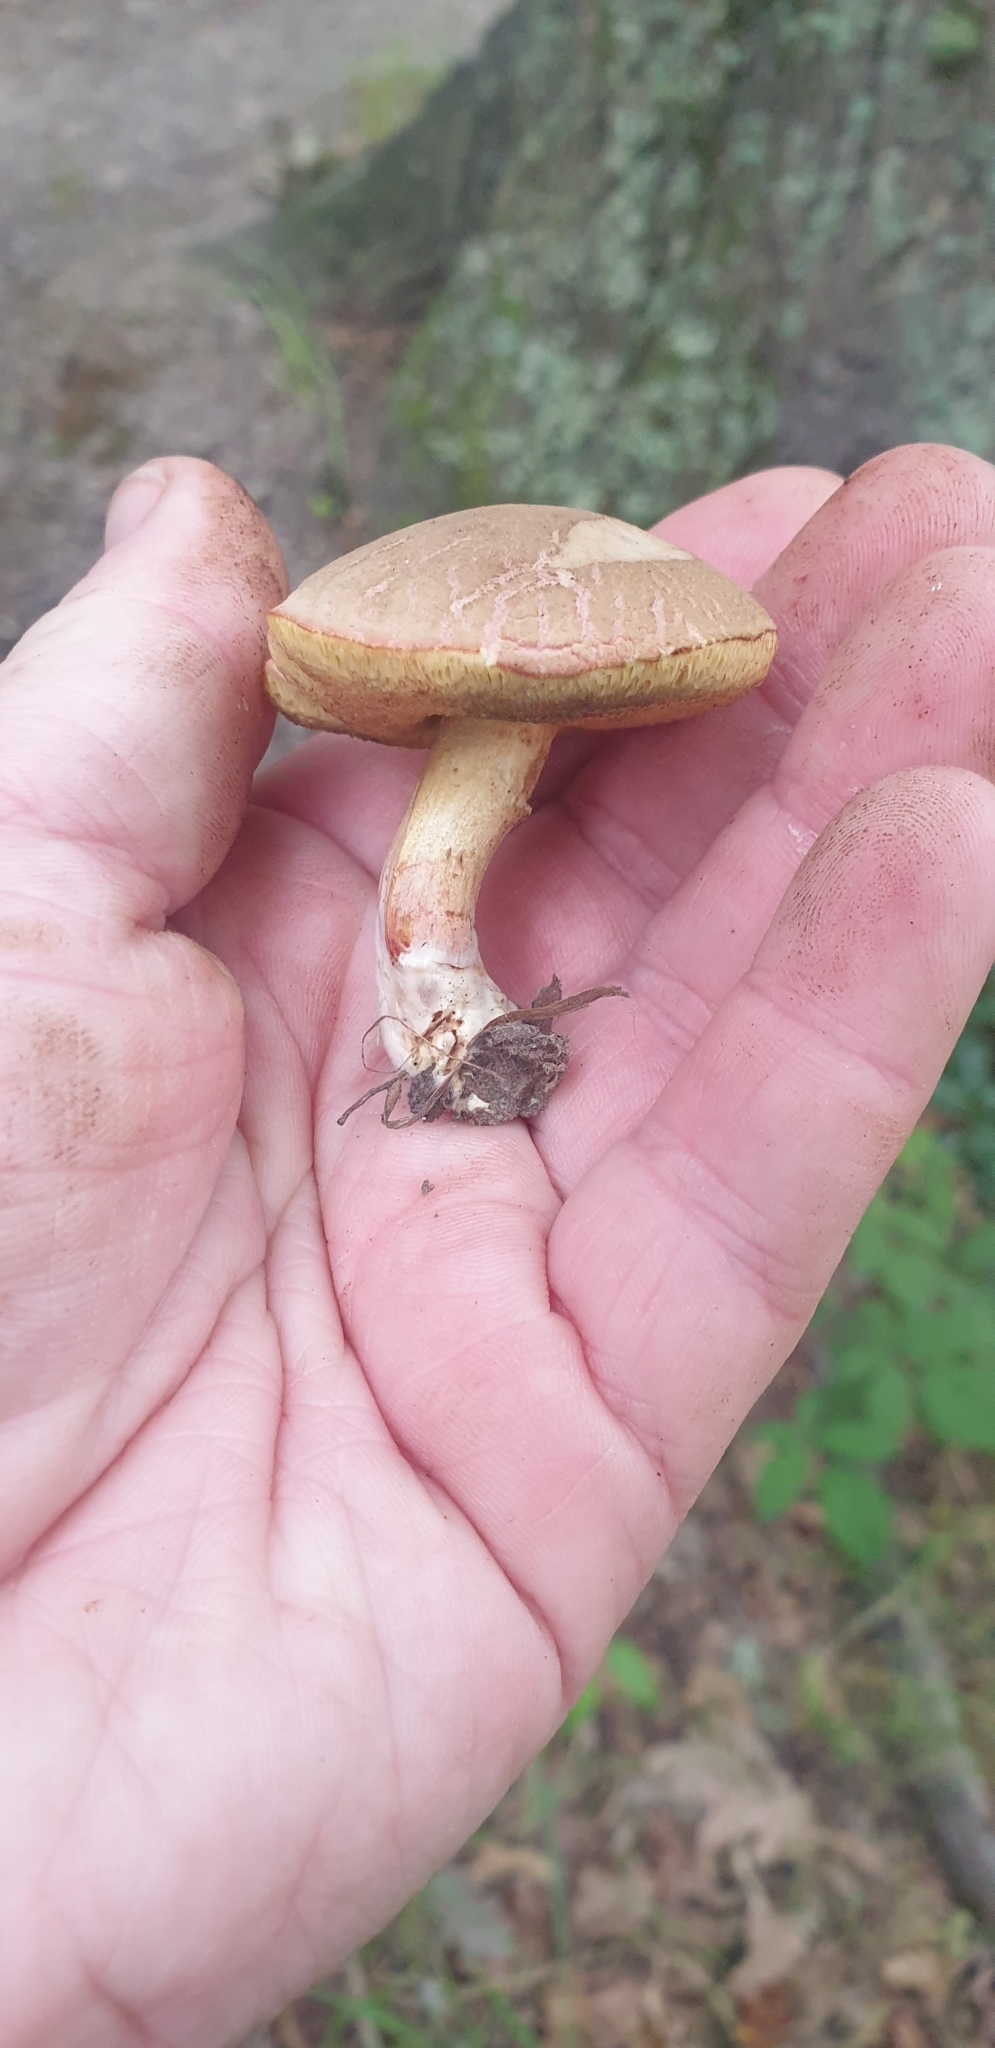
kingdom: Fungi
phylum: Basidiomycota
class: Agaricomycetes
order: Boletales
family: Boletaceae
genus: Xerocomellus
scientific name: Xerocomellus cisalpinus
